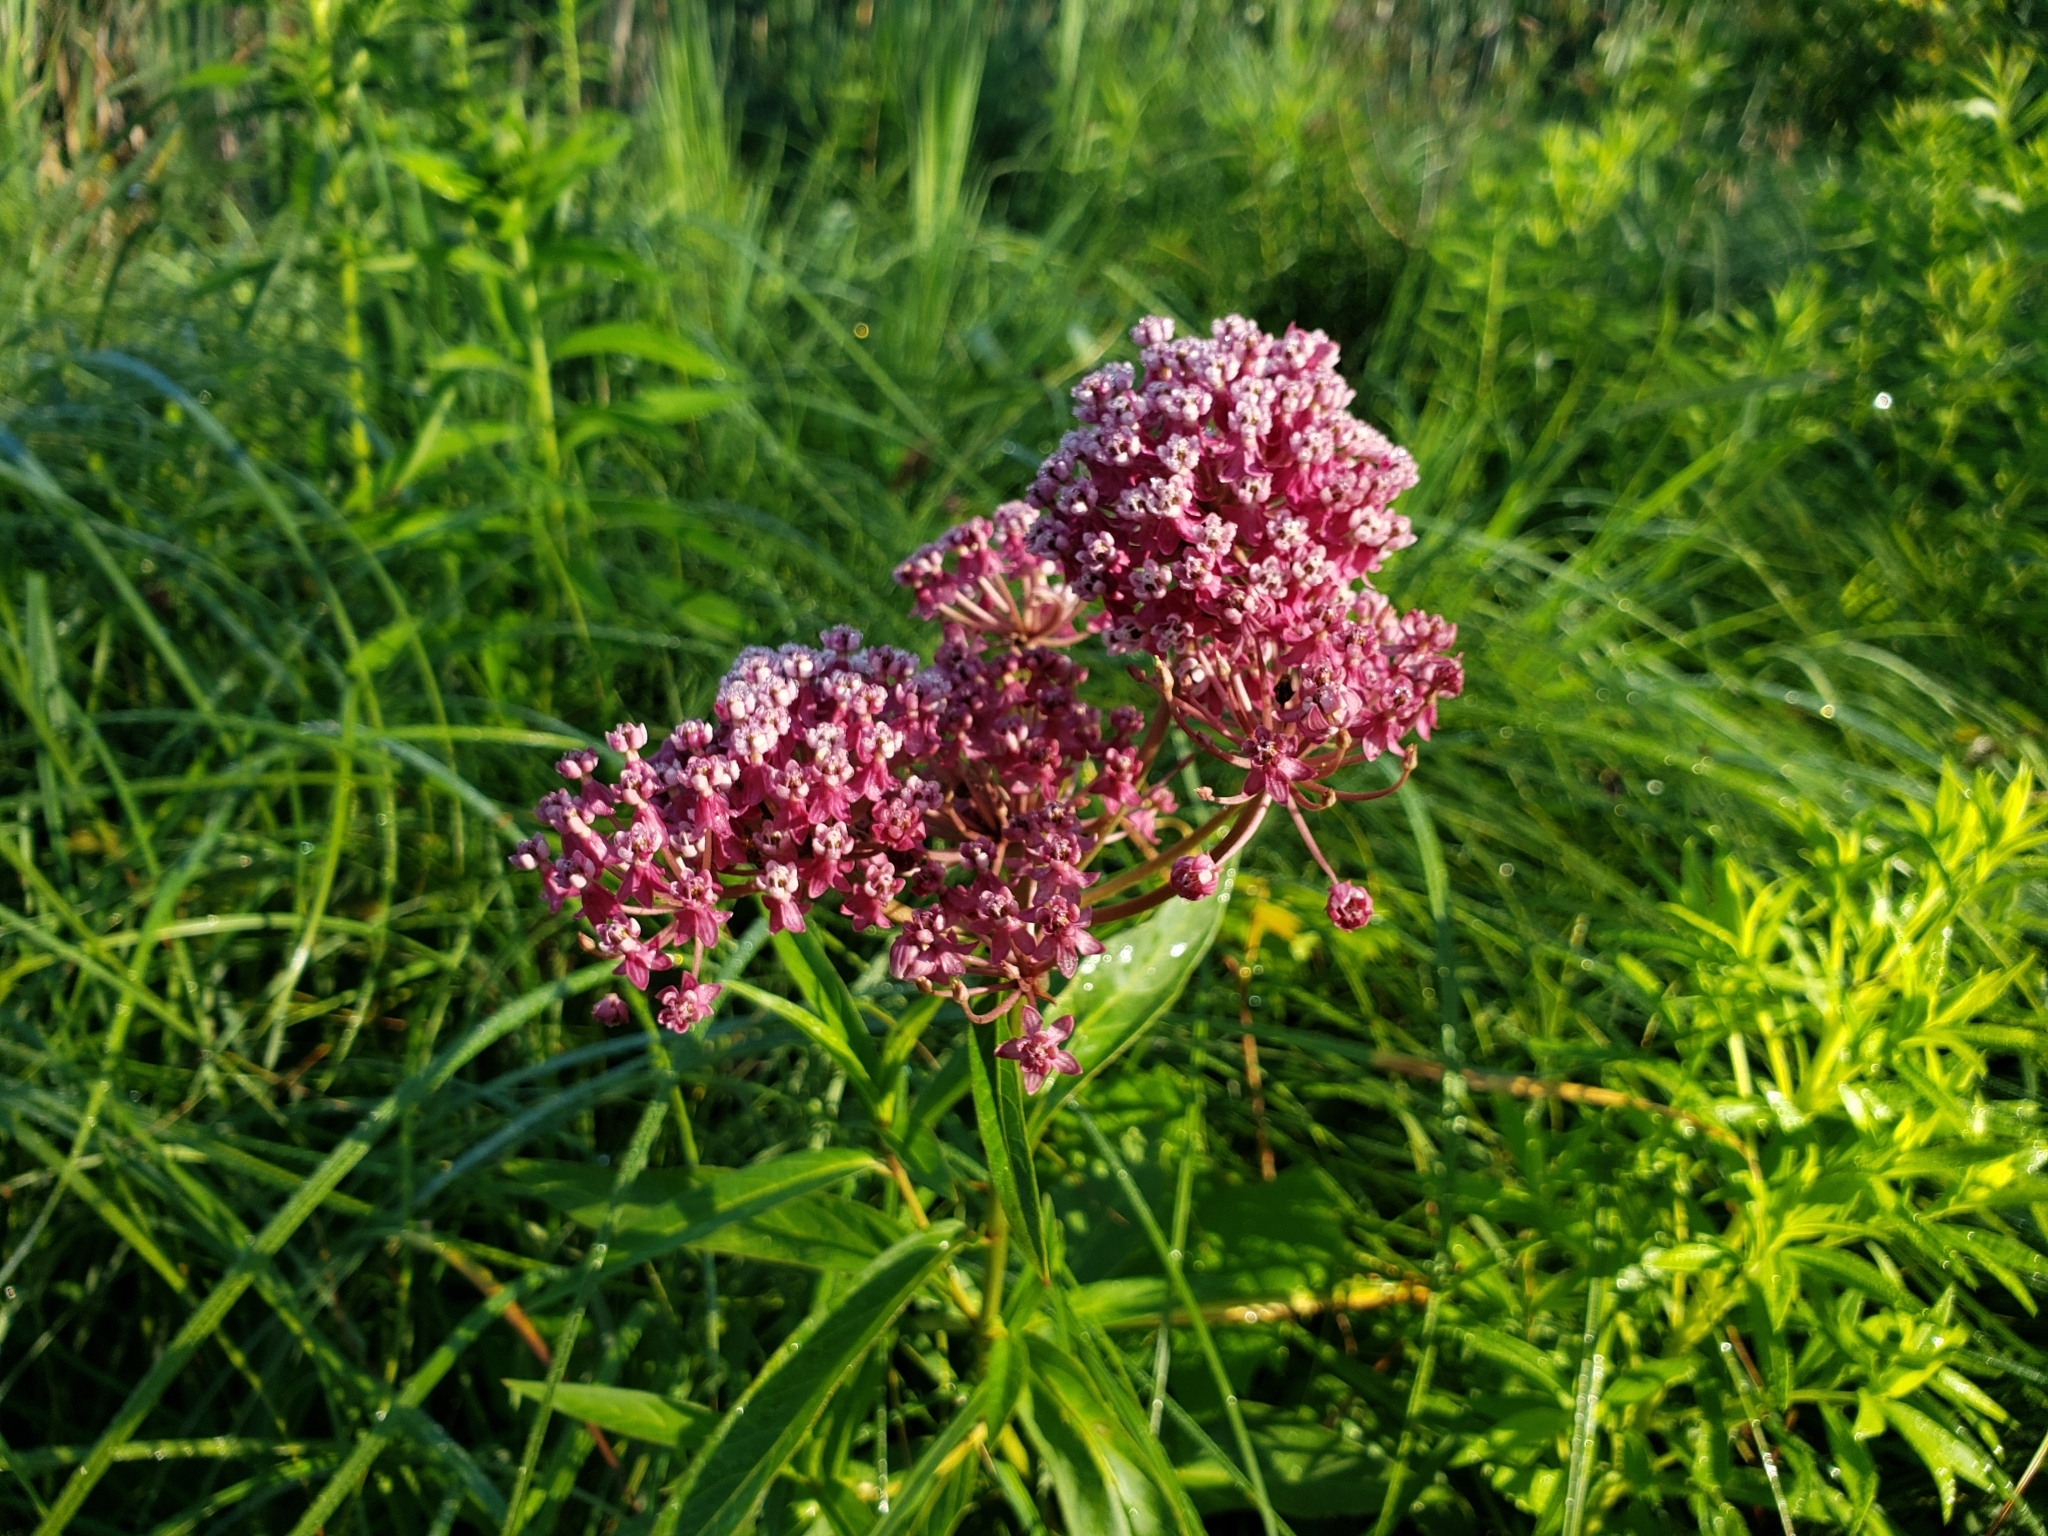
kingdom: Plantae
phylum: Tracheophyta
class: Magnoliopsida
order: Gentianales
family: Apocynaceae
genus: Asclepias
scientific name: Asclepias incarnata
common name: Swamp milkweed
